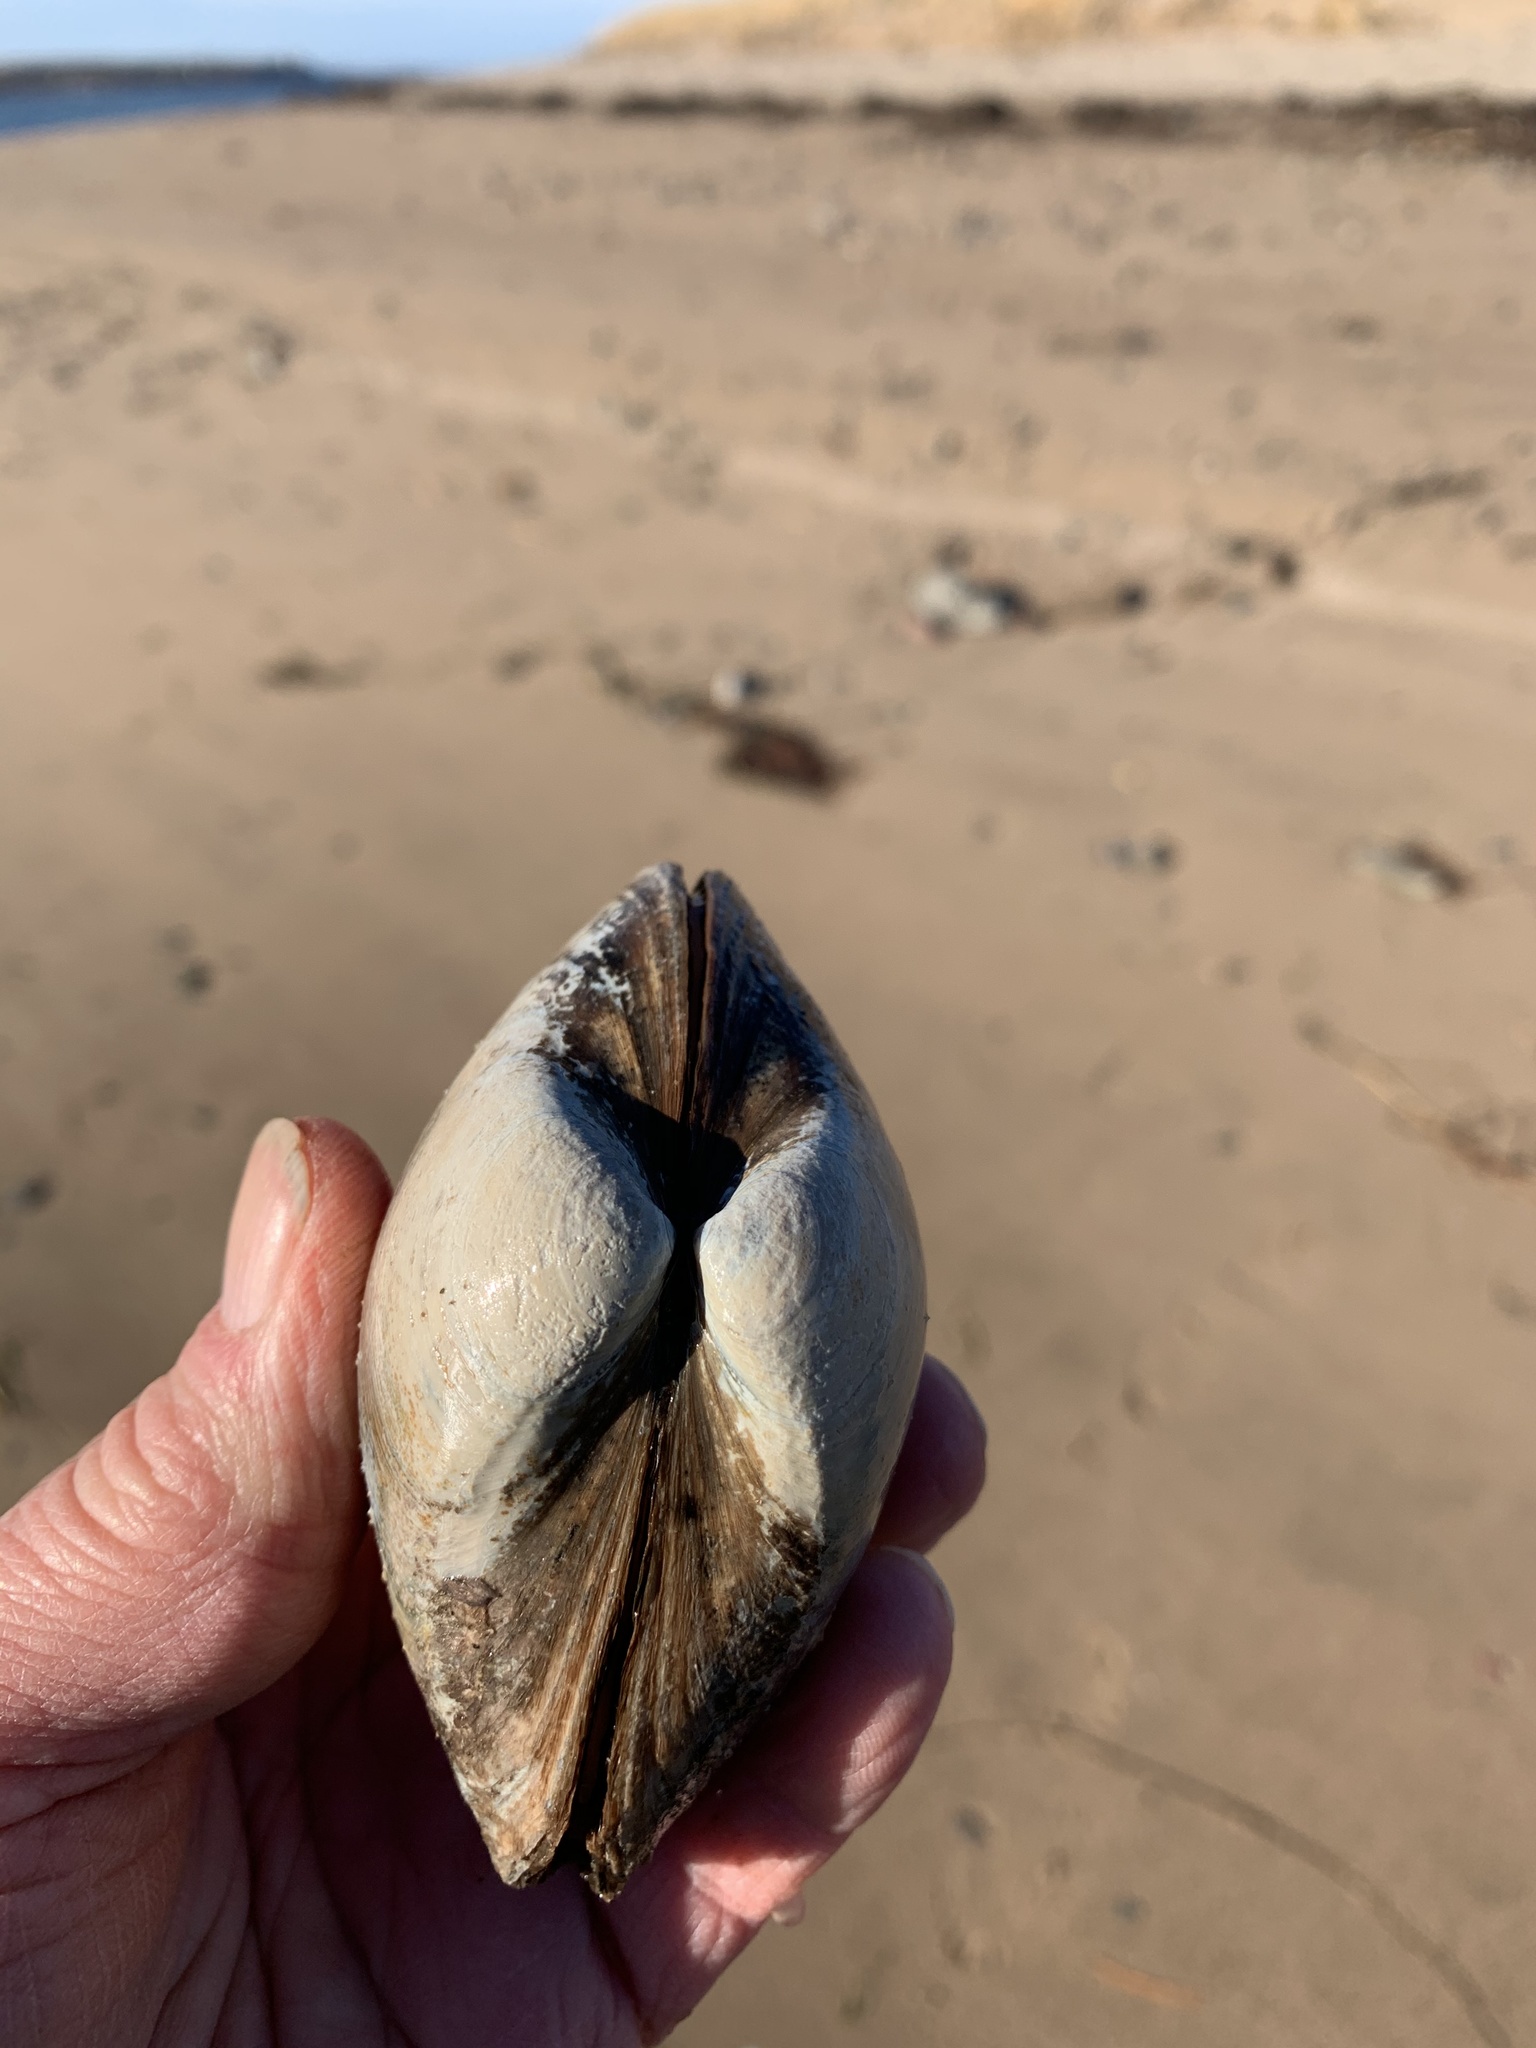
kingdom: Animalia
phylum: Mollusca
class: Bivalvia
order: Venerida
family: Mactridae
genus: Spisula
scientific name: Spisula solidissima
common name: Atlantic surf clam
